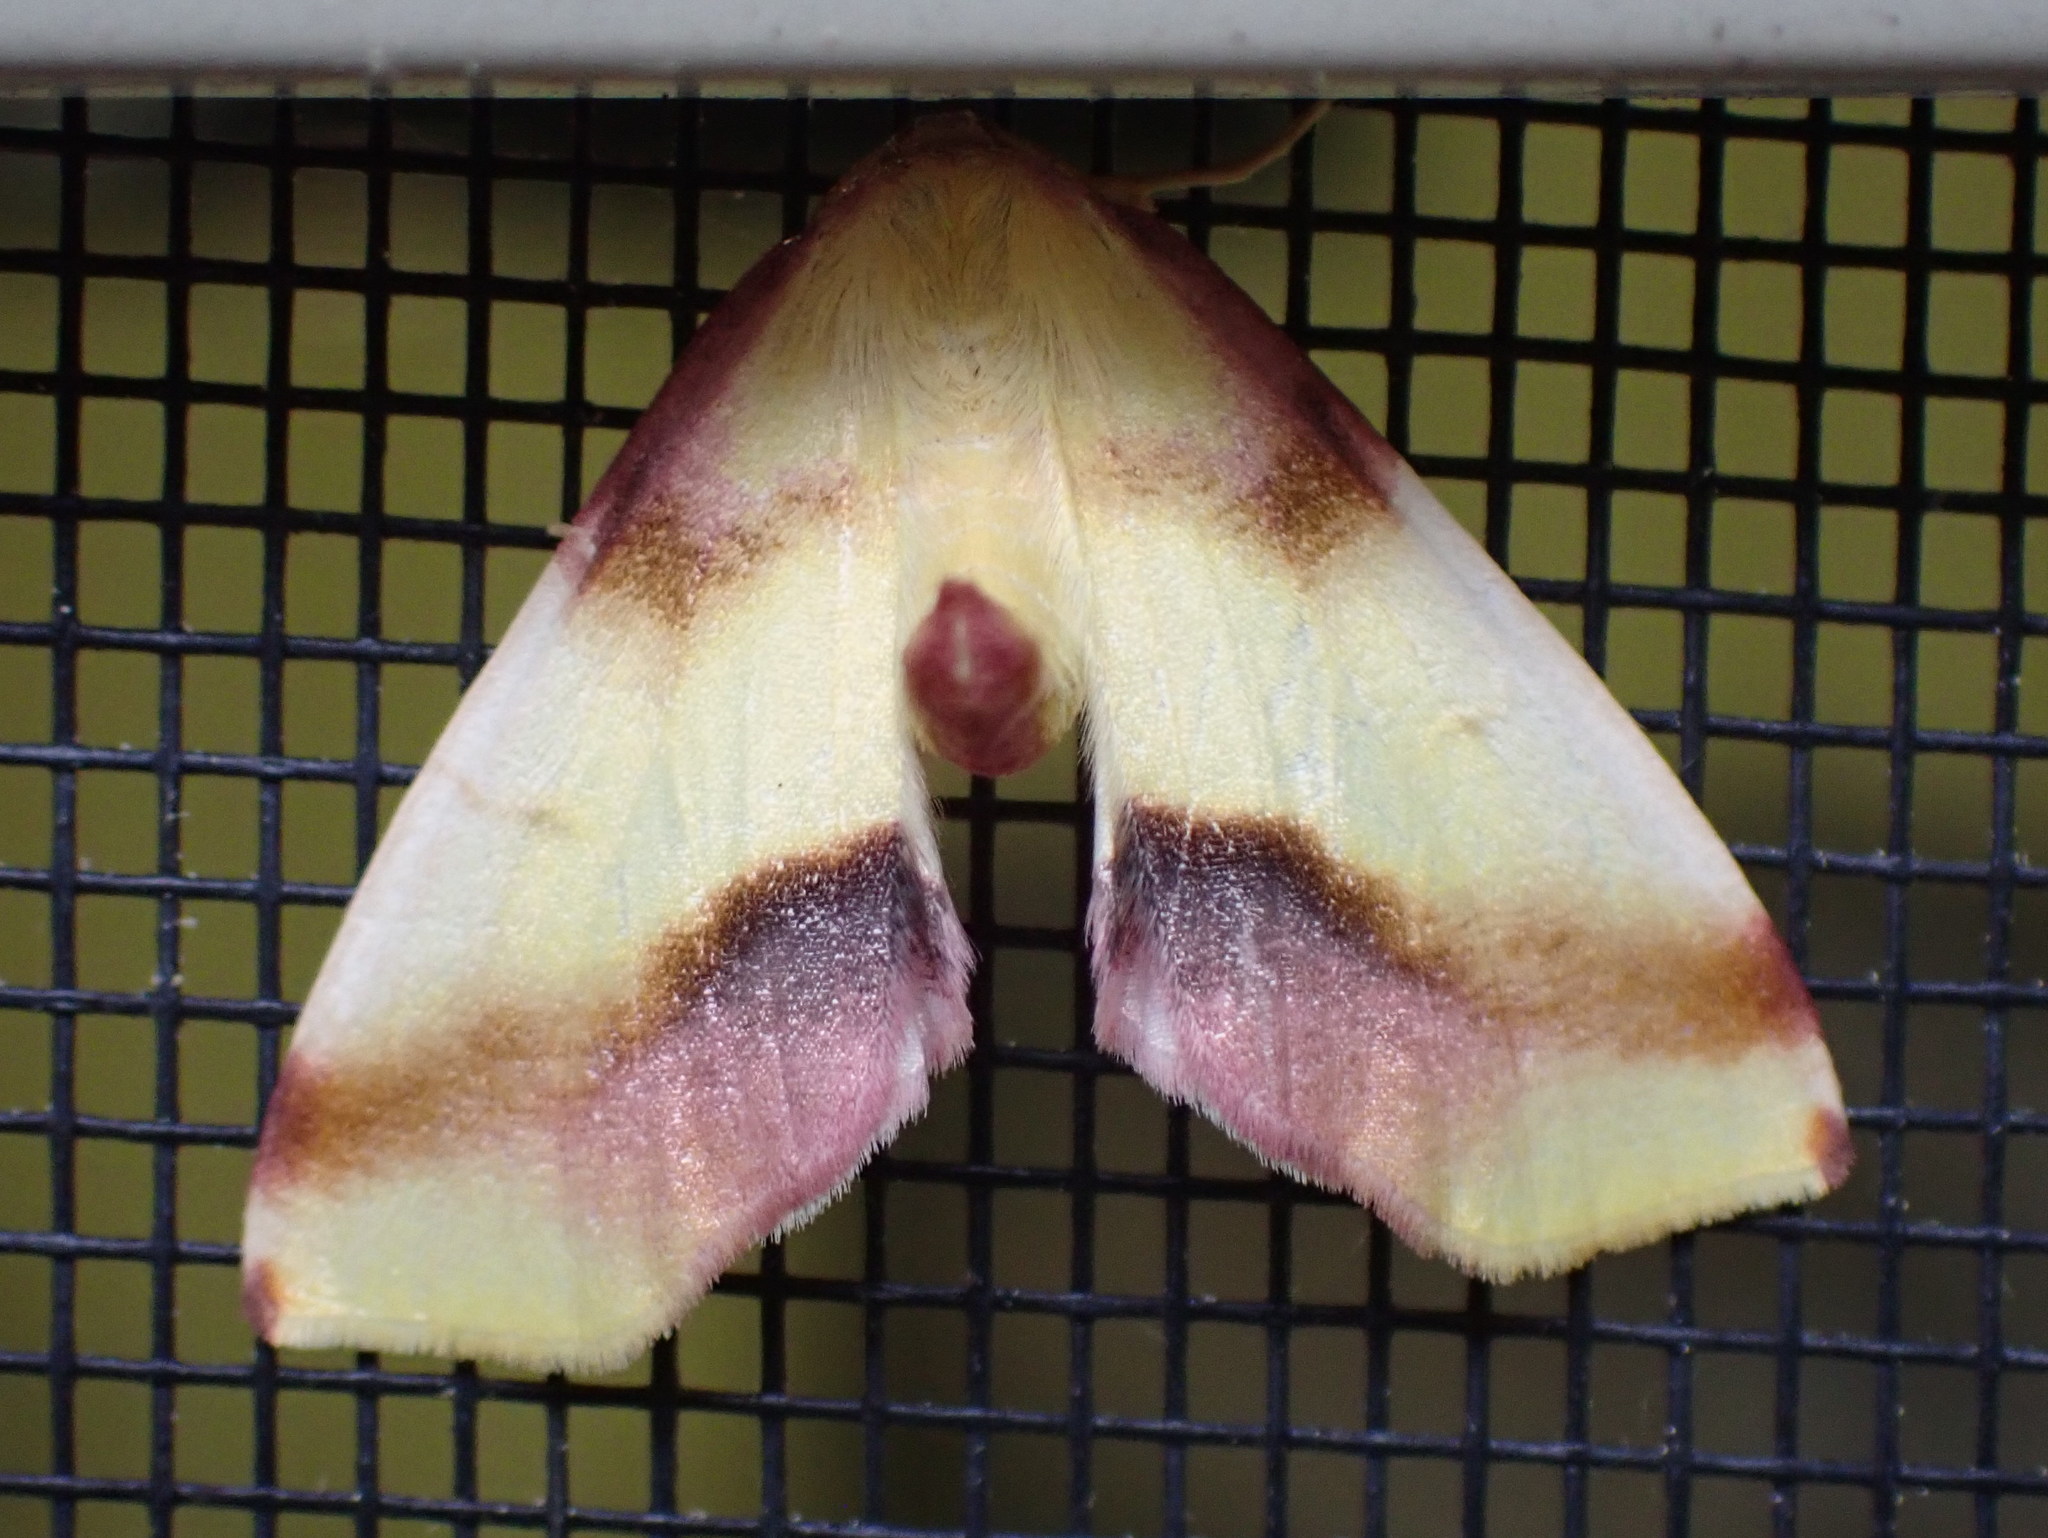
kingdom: Animalia
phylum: Arthropoda
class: Insecta
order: Lepidoptera
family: Geometridae
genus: Plagodis
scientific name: Plagodis serinaria
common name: Lemon plagodis
